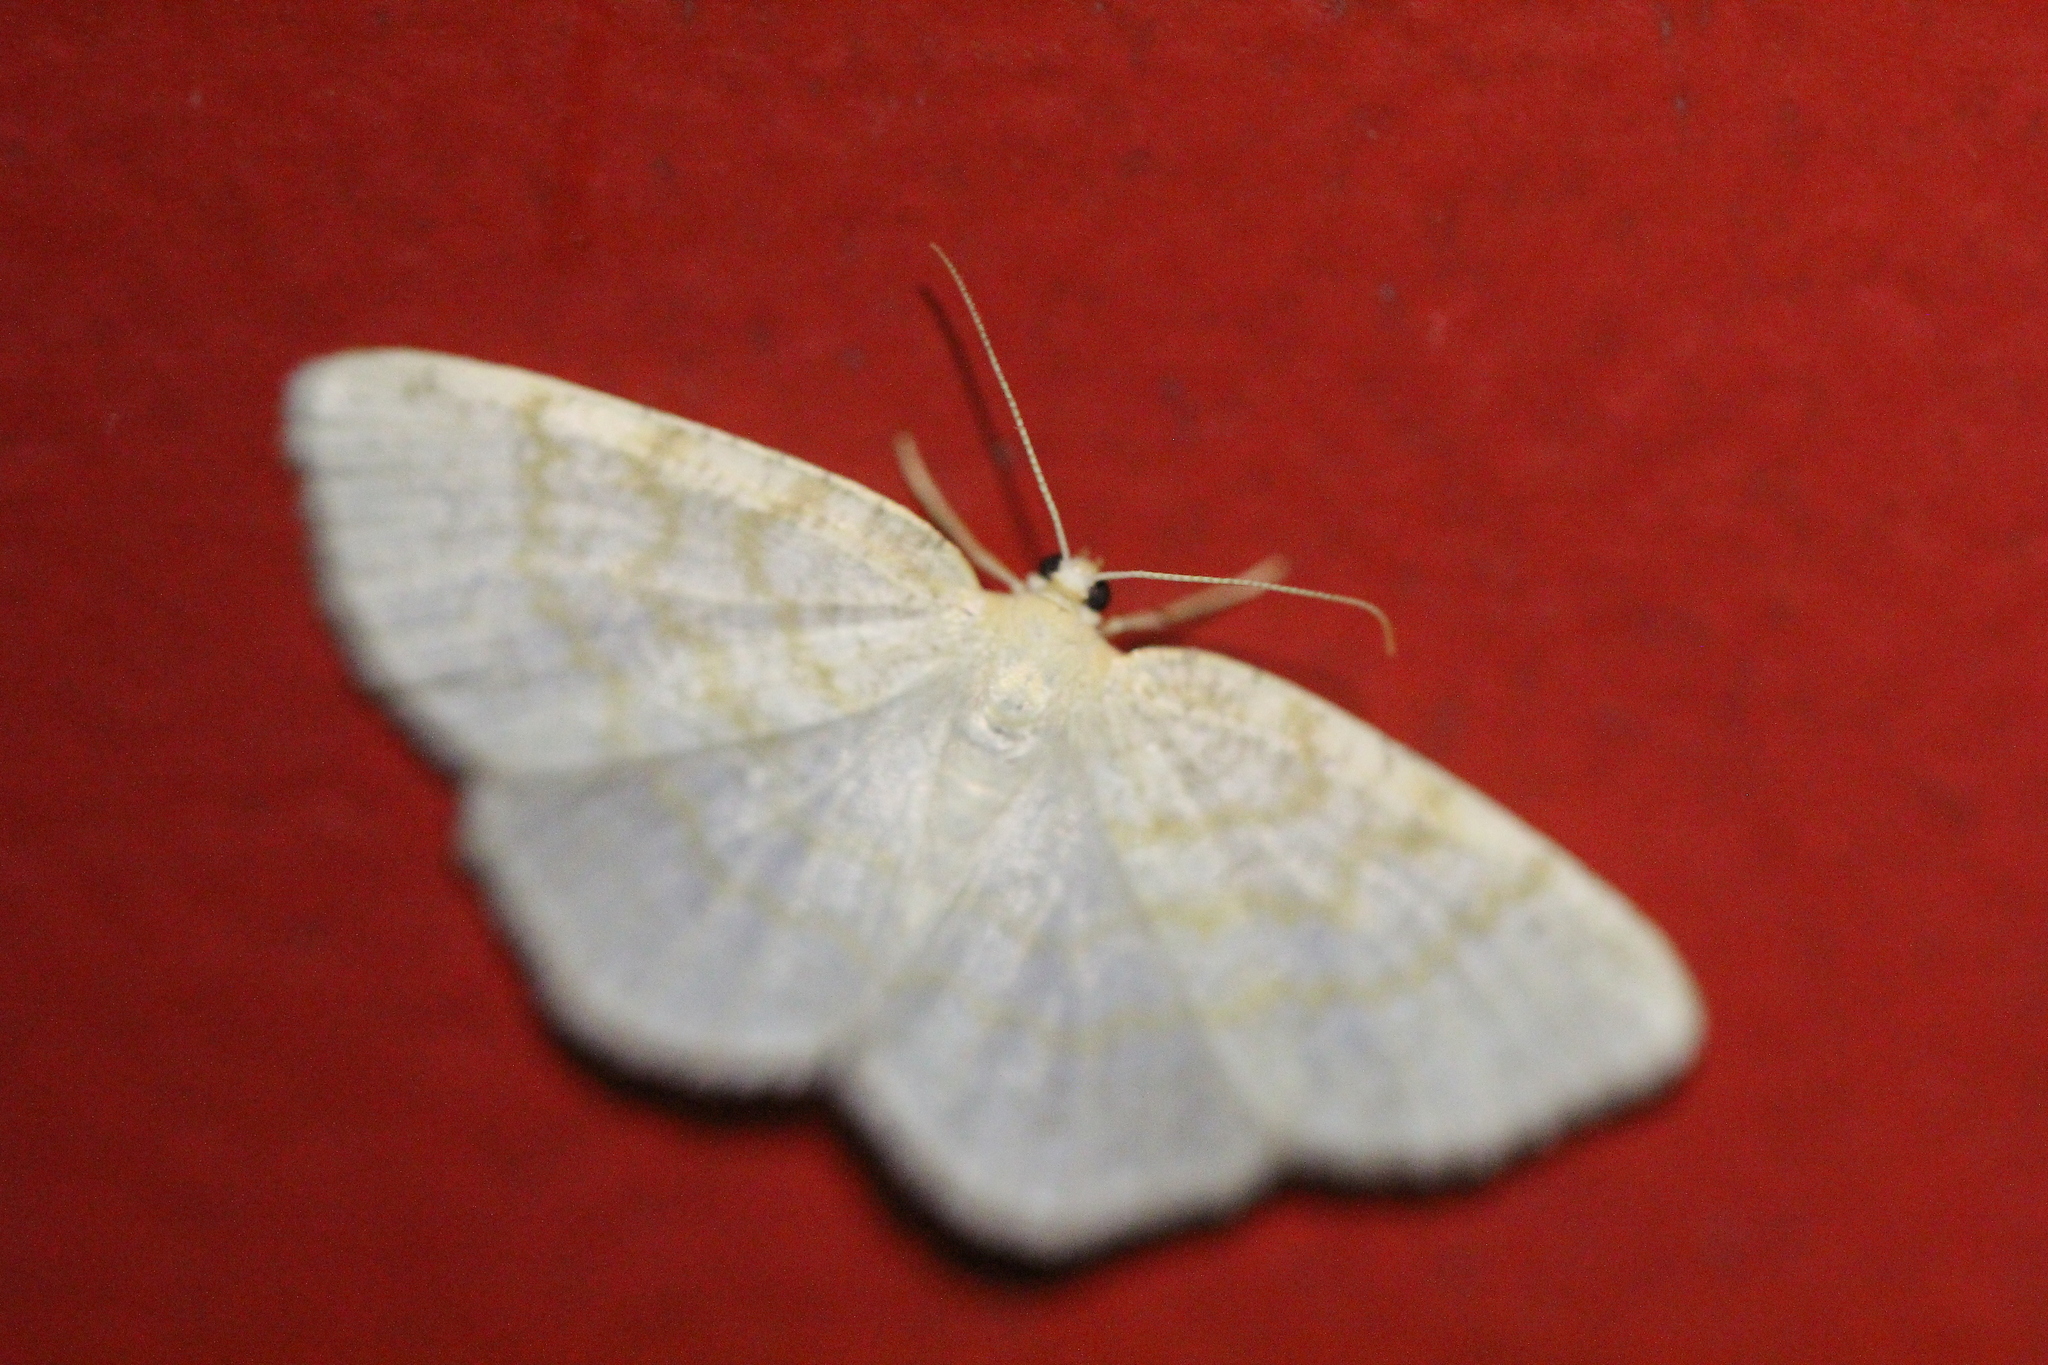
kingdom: Animalia
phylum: Arthropoda
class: Insecta
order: Lepidoptera
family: Geometridae
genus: Cabera
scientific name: Cabera erythemaria
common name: Yellow-dusted cream moth
